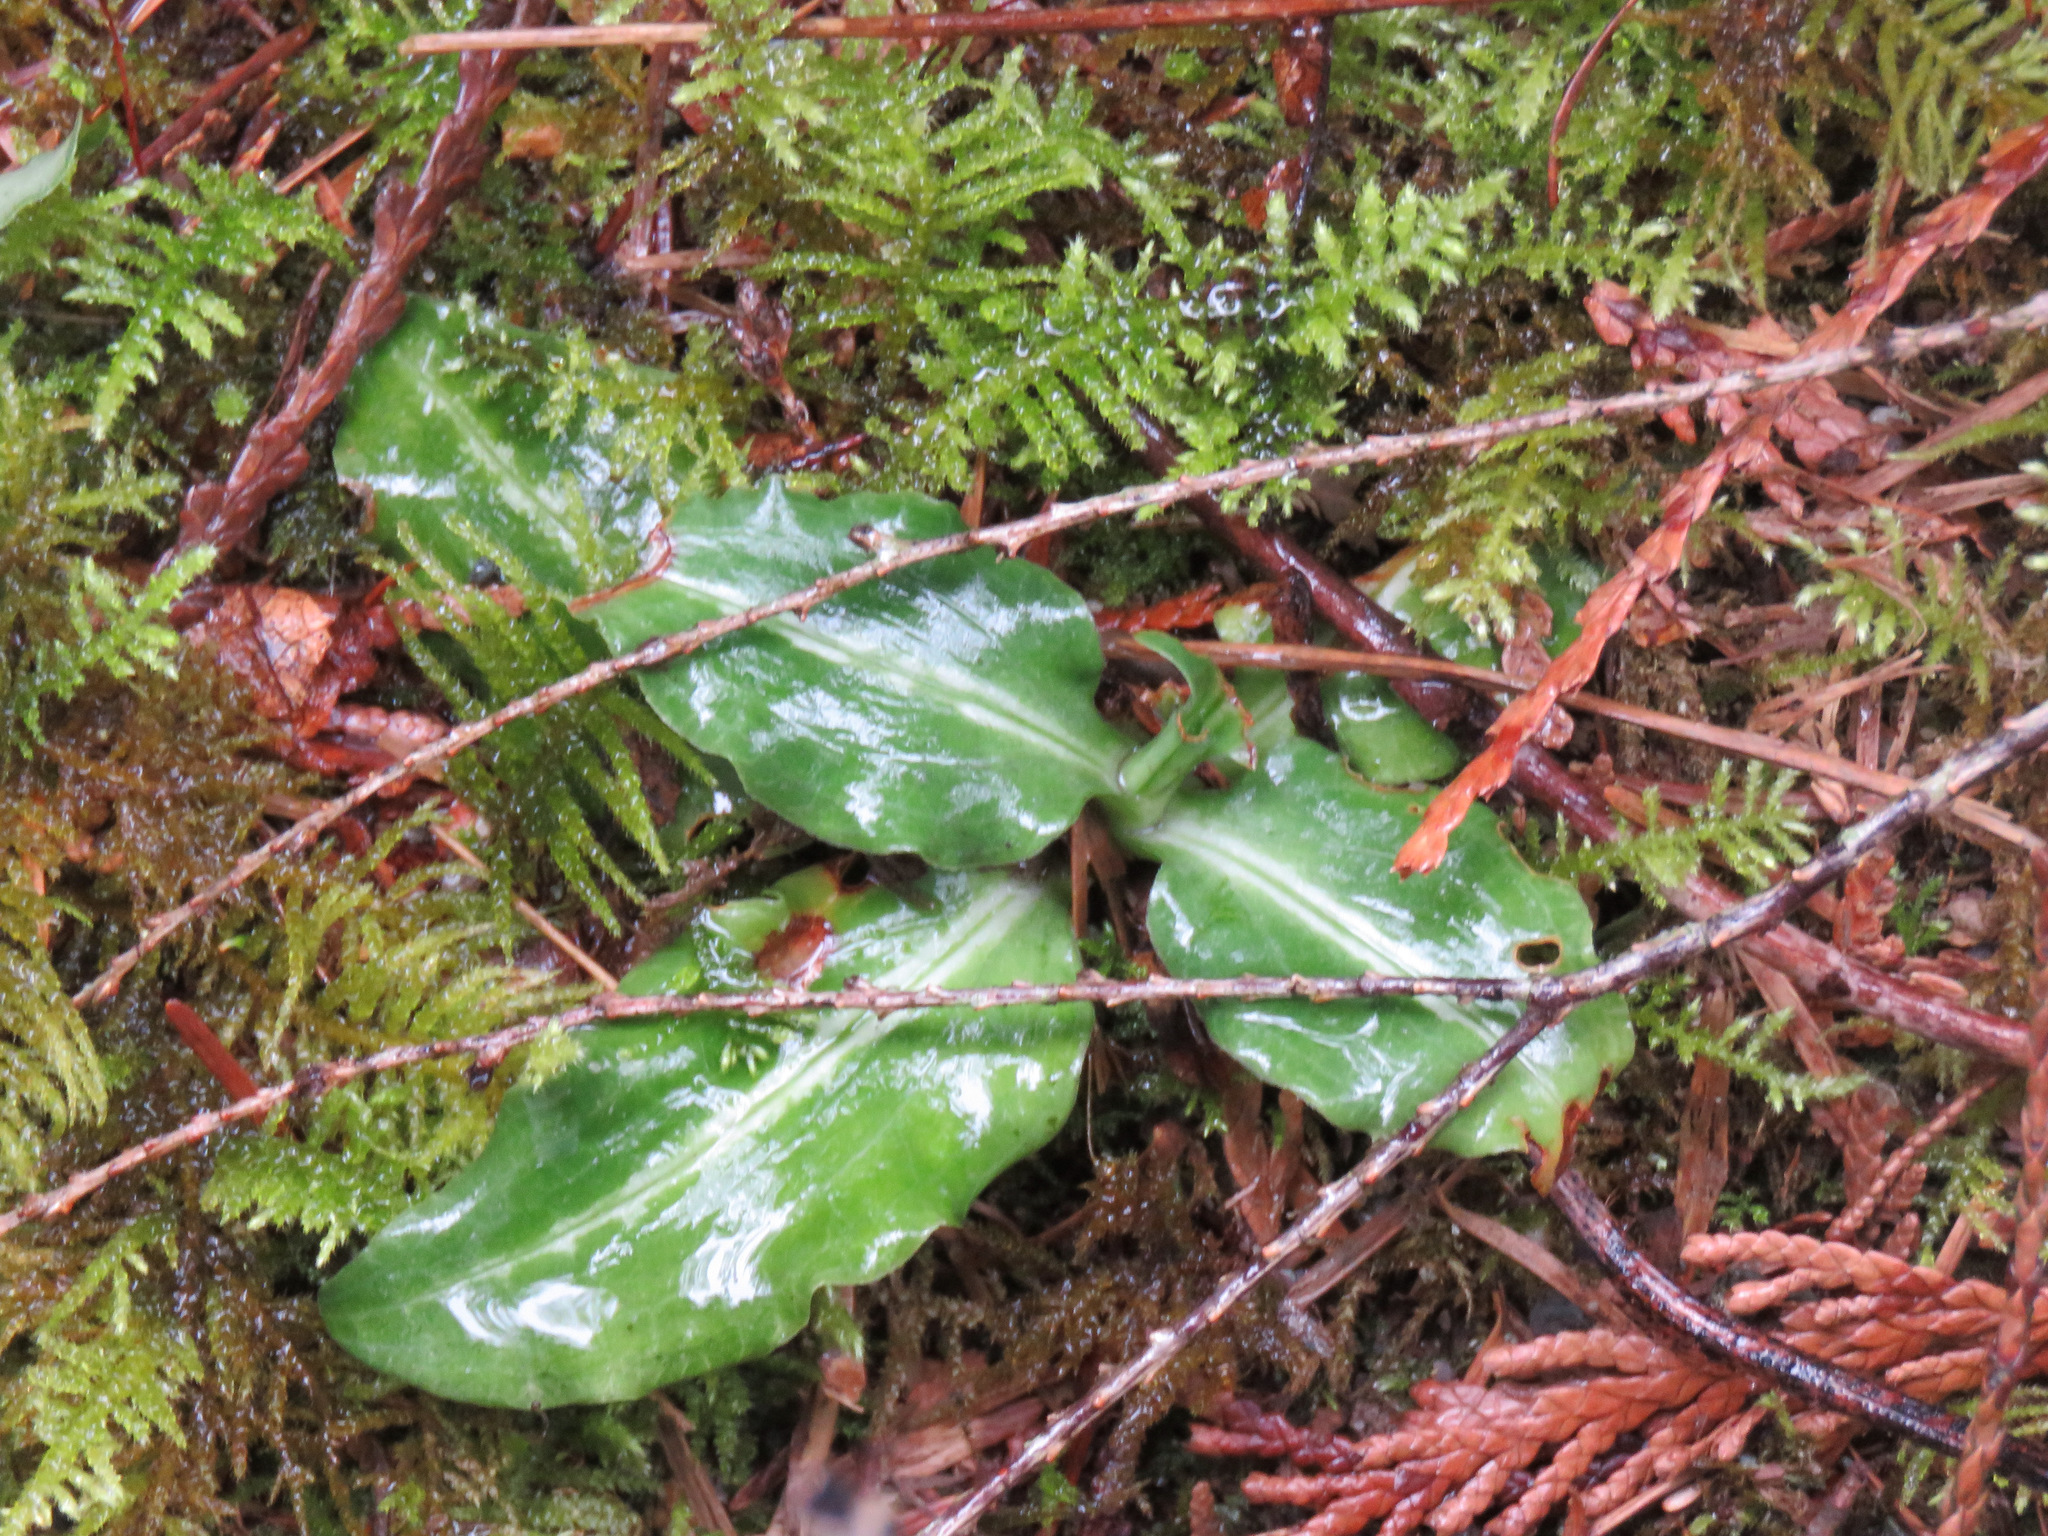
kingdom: Plantae
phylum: Tracheophyta
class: Liliopsida
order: Asparagales
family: Orchidaceae
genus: Goodyera
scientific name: Goodyera oblongifolia
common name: Giant rattlesnake-plantain
